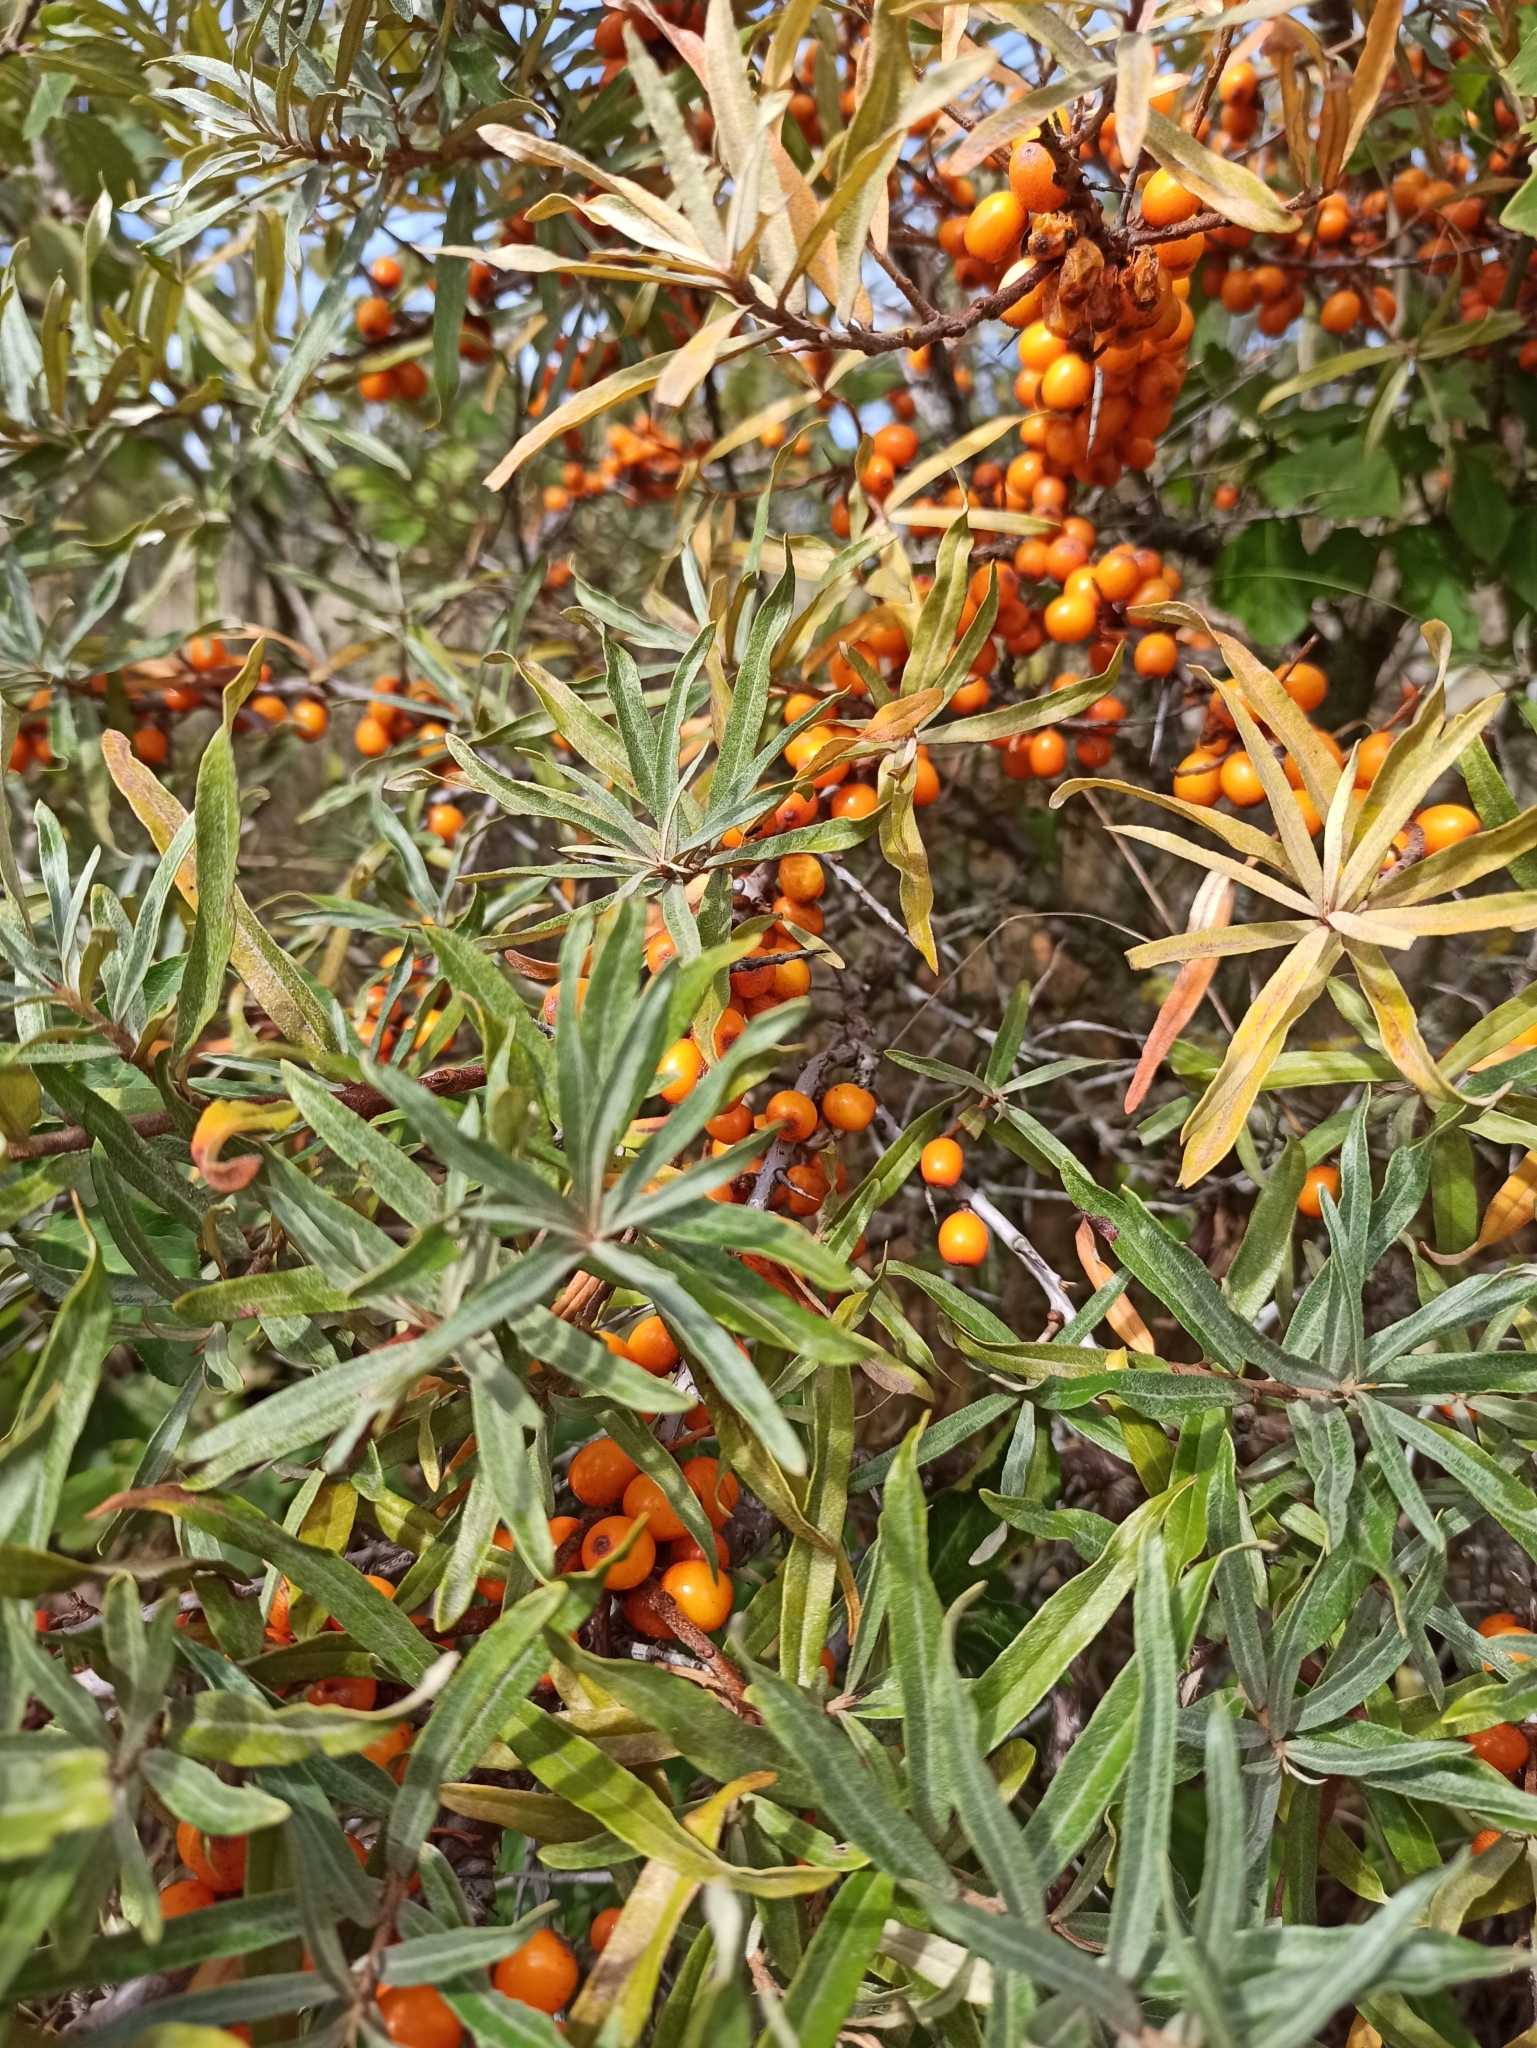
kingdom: Plantae
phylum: Tracheophyta
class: Magnoliopsida
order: Rosales
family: Elaeagnaceae
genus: Hippophae
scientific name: Hippophae rhamnoides
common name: Sea-buckthorn
